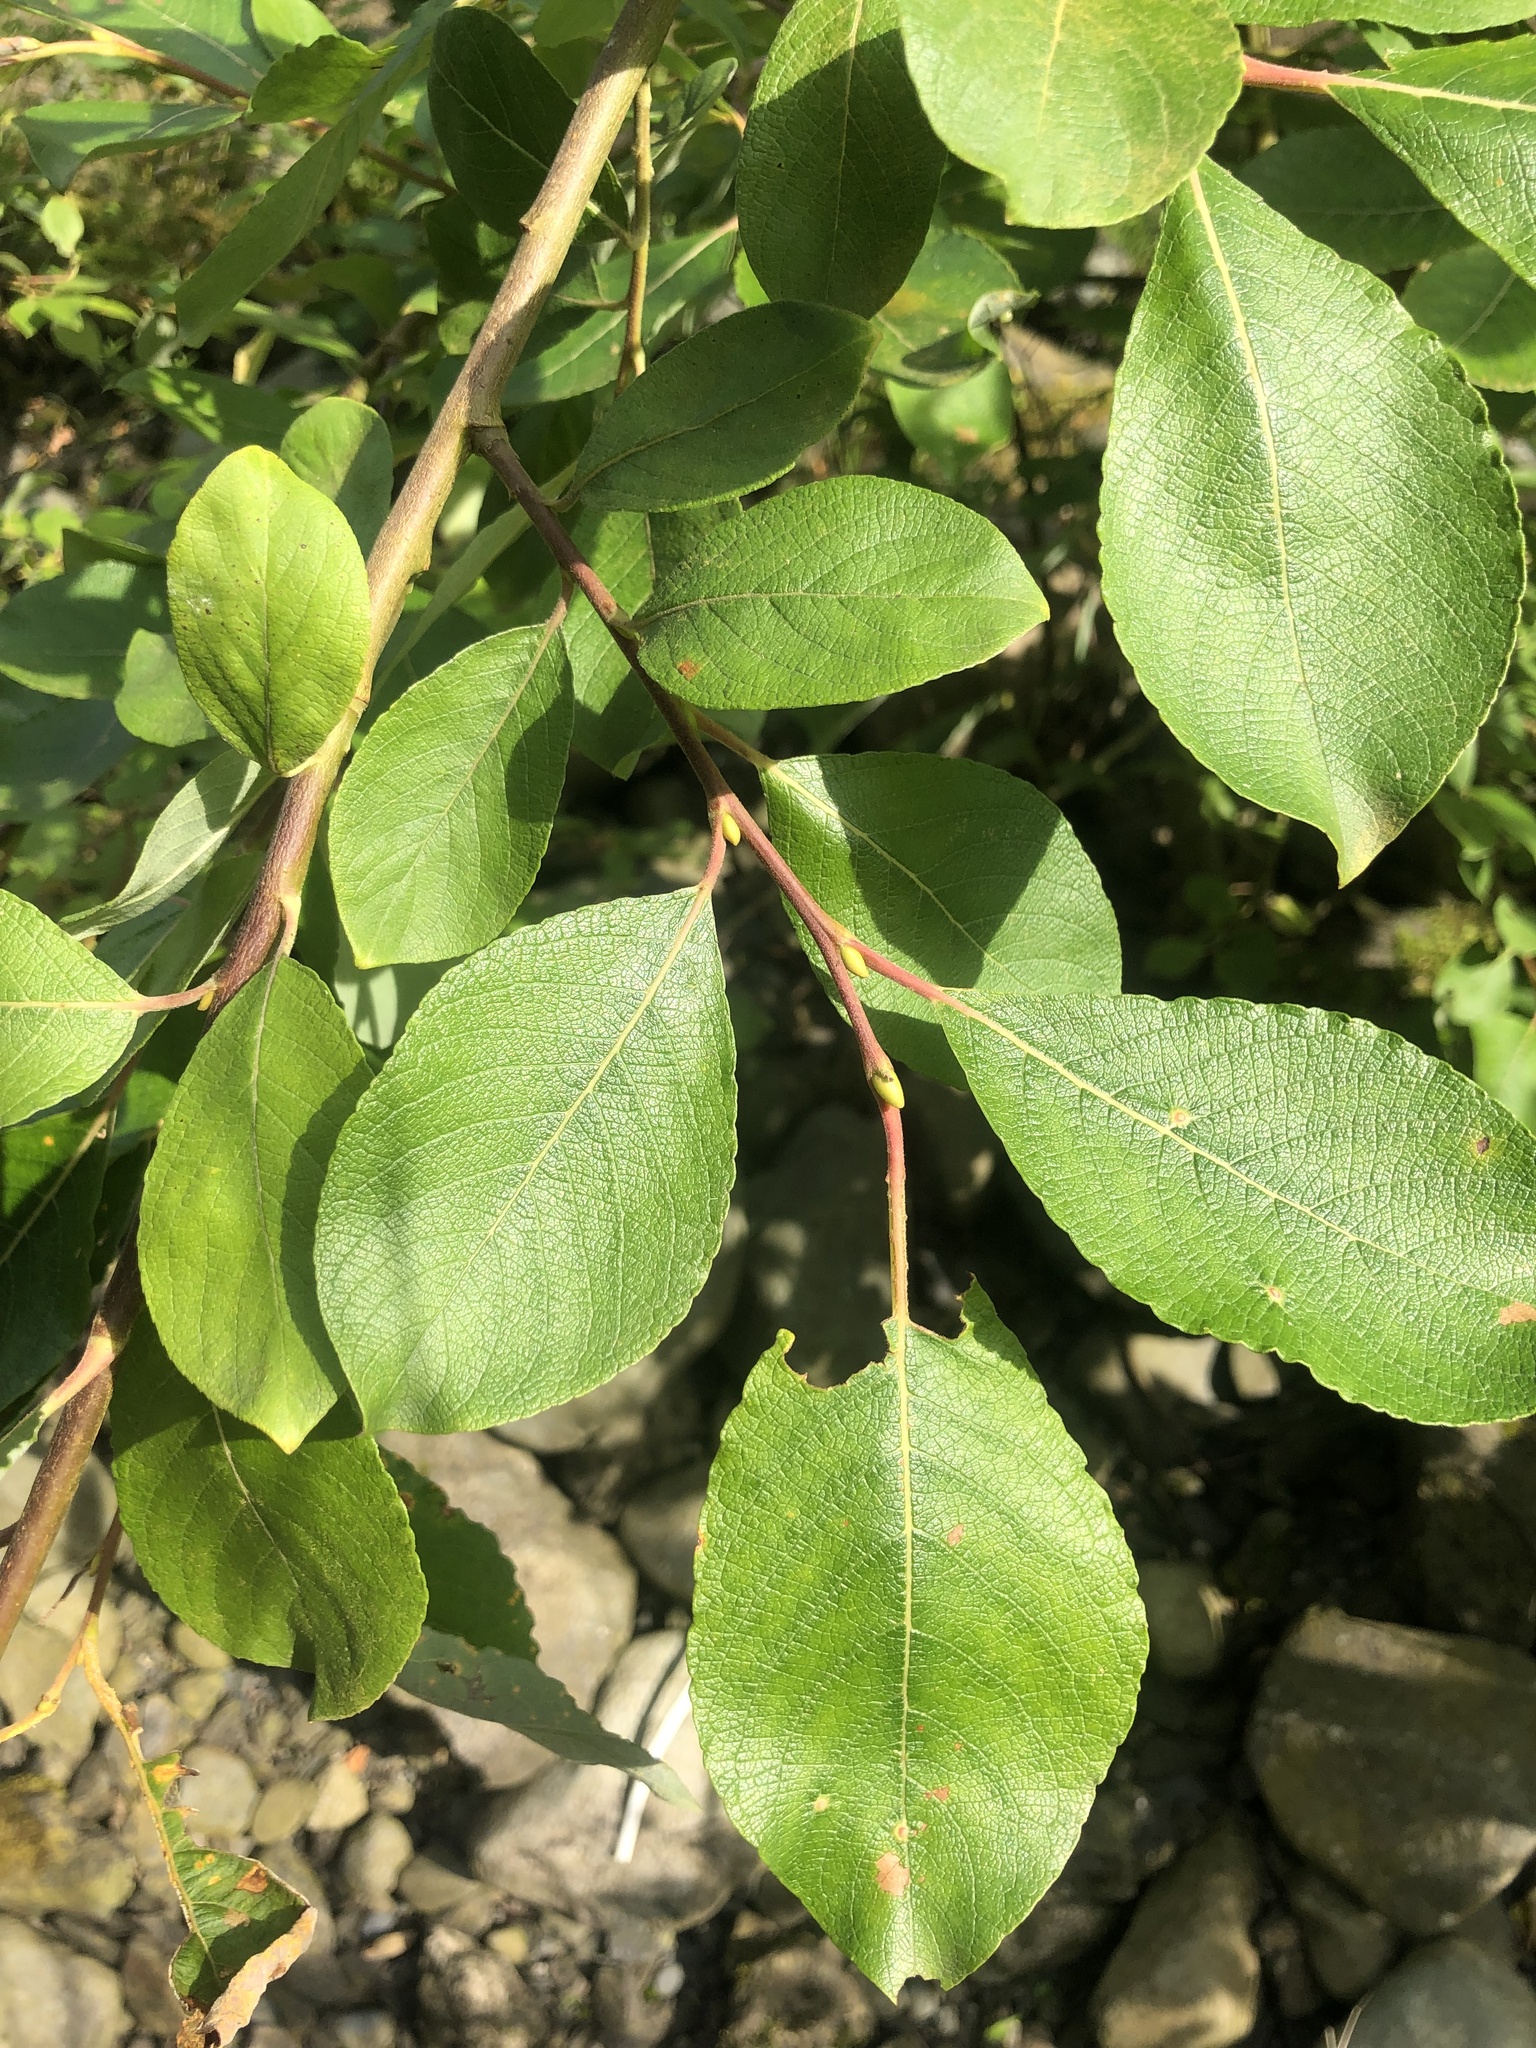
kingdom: Plantae
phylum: Tracheophyta
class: Magnoliopsida
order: Malpighiales
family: Salicaceae
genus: Salix
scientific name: Salix caprea
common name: Goat willow
